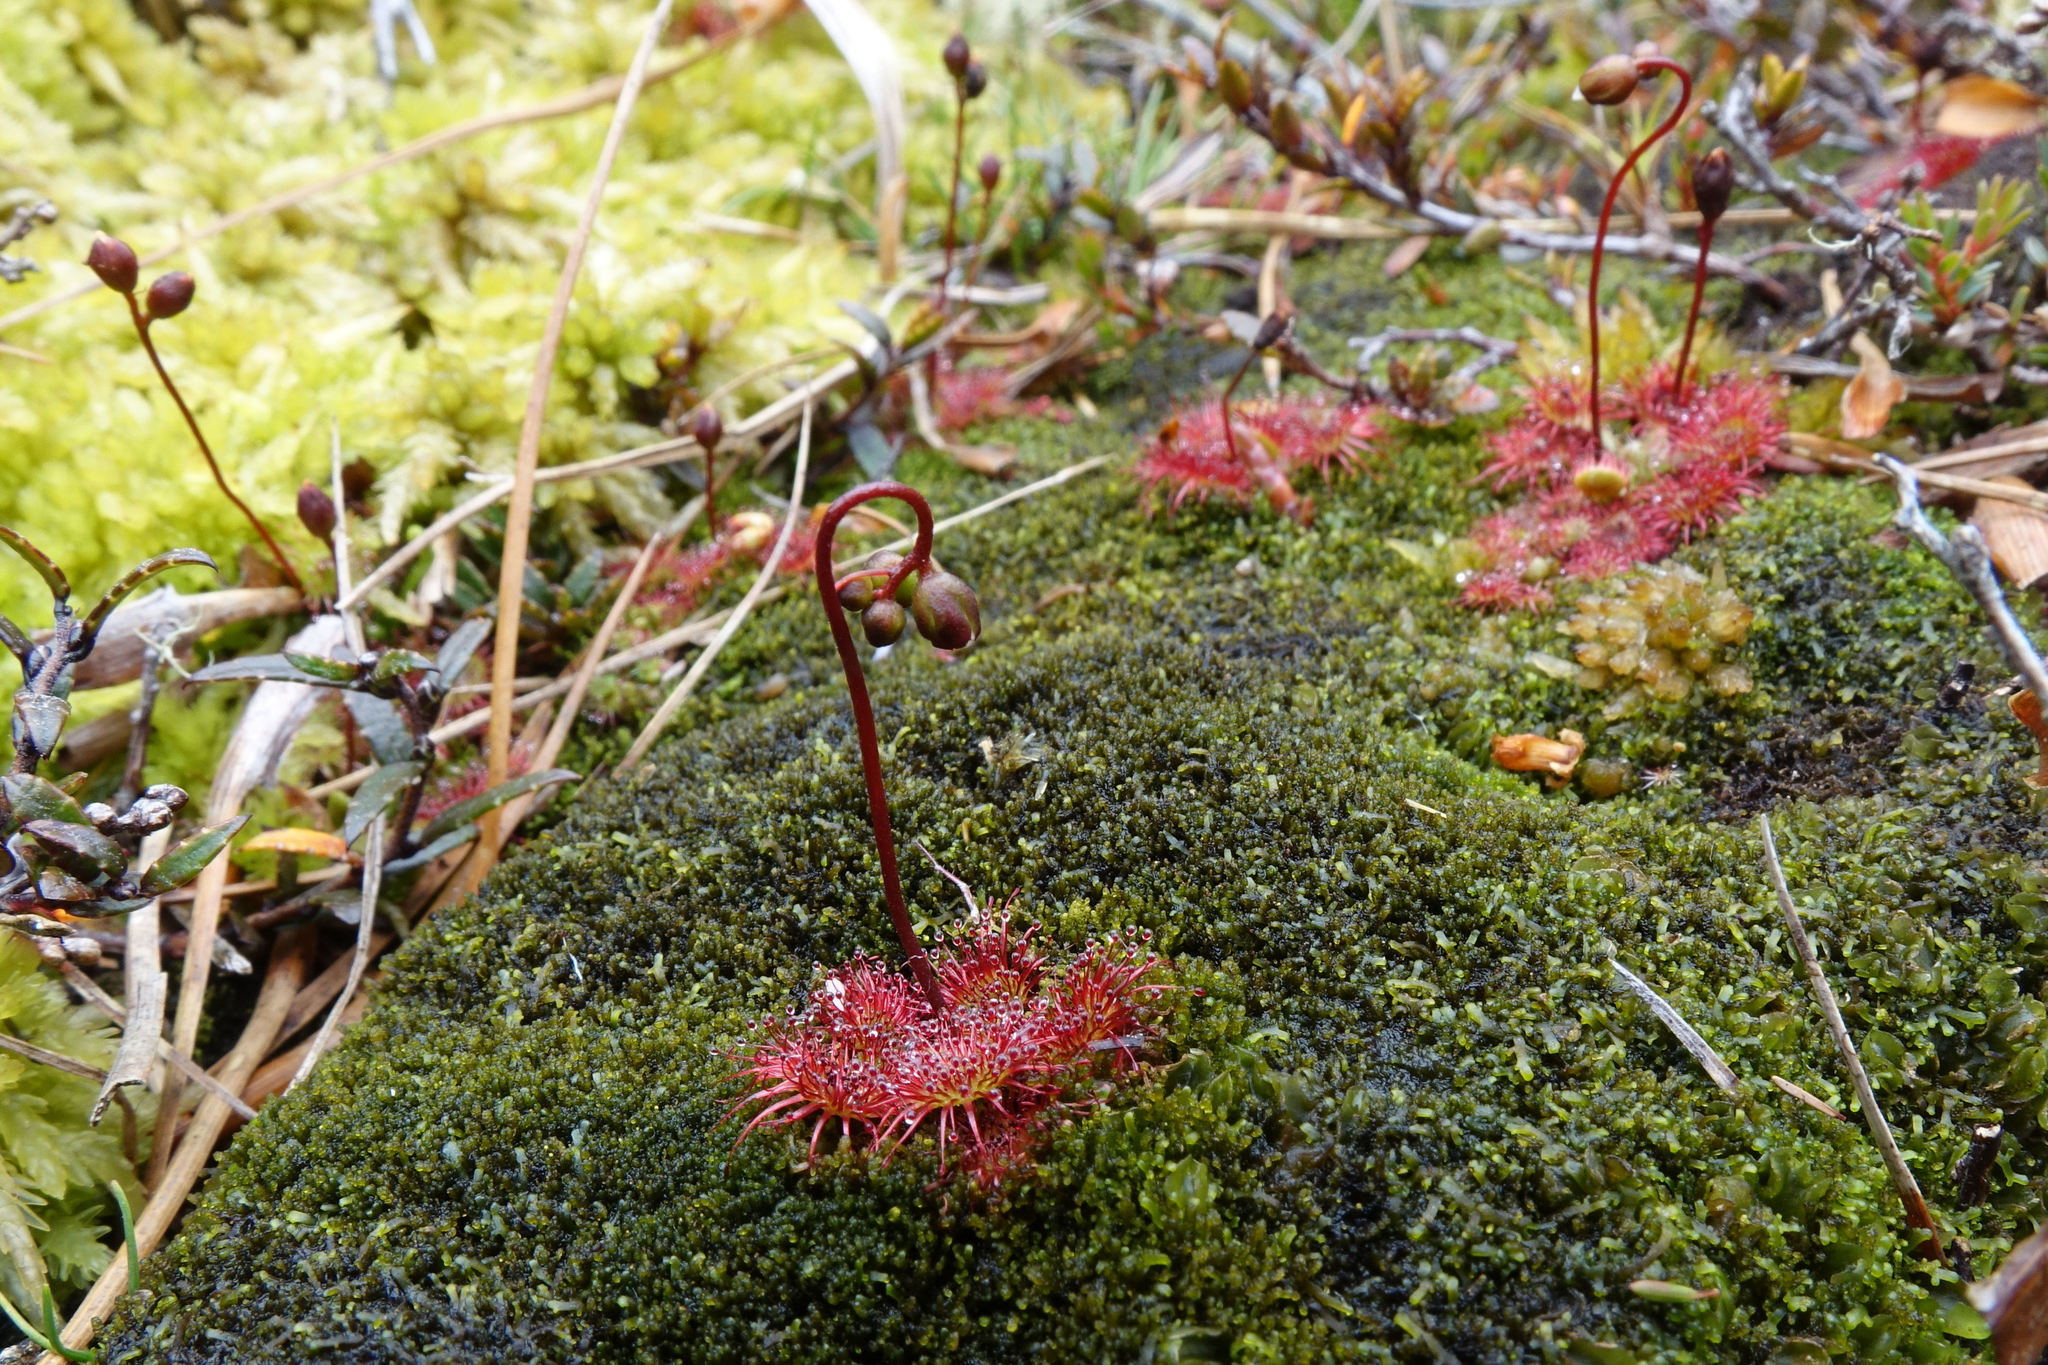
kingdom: Plantae
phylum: Tracheophyta
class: Magnoliopsida
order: Caryophyllales
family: Droseraceae
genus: Drosera
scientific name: Drosera spatulata
